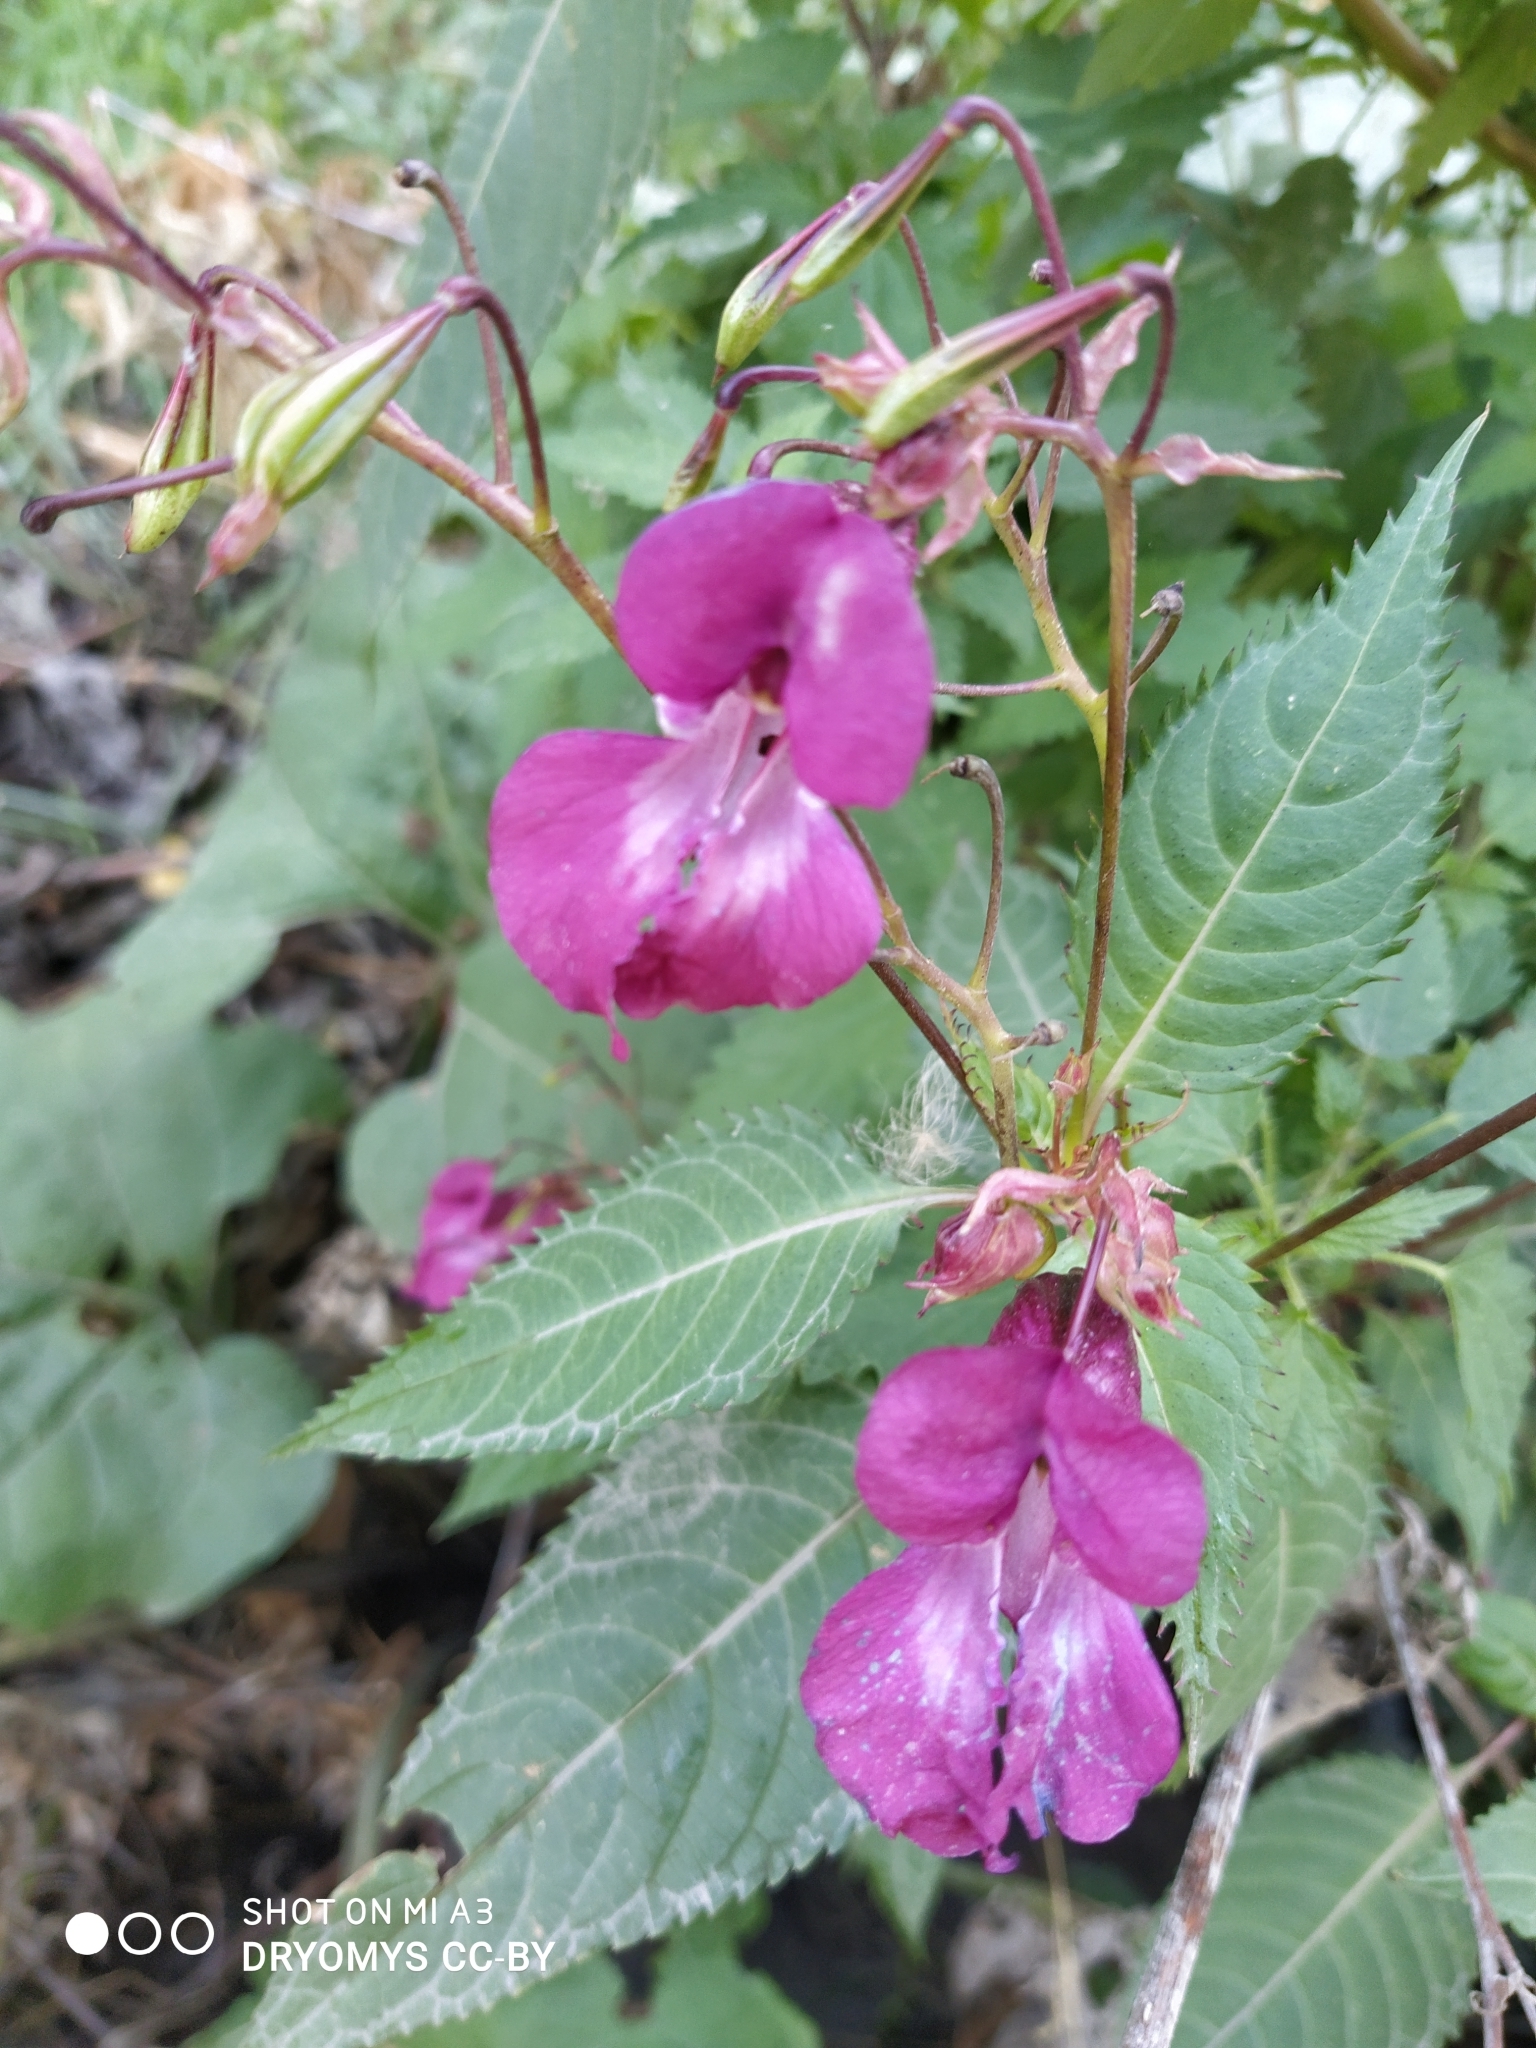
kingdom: Plantae
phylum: Tracheophyta
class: Magnoliopsida
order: Ericales
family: Balsaminaceae
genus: Impatiens
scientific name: Impatiens glandulifera
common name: Himalayan balsam
